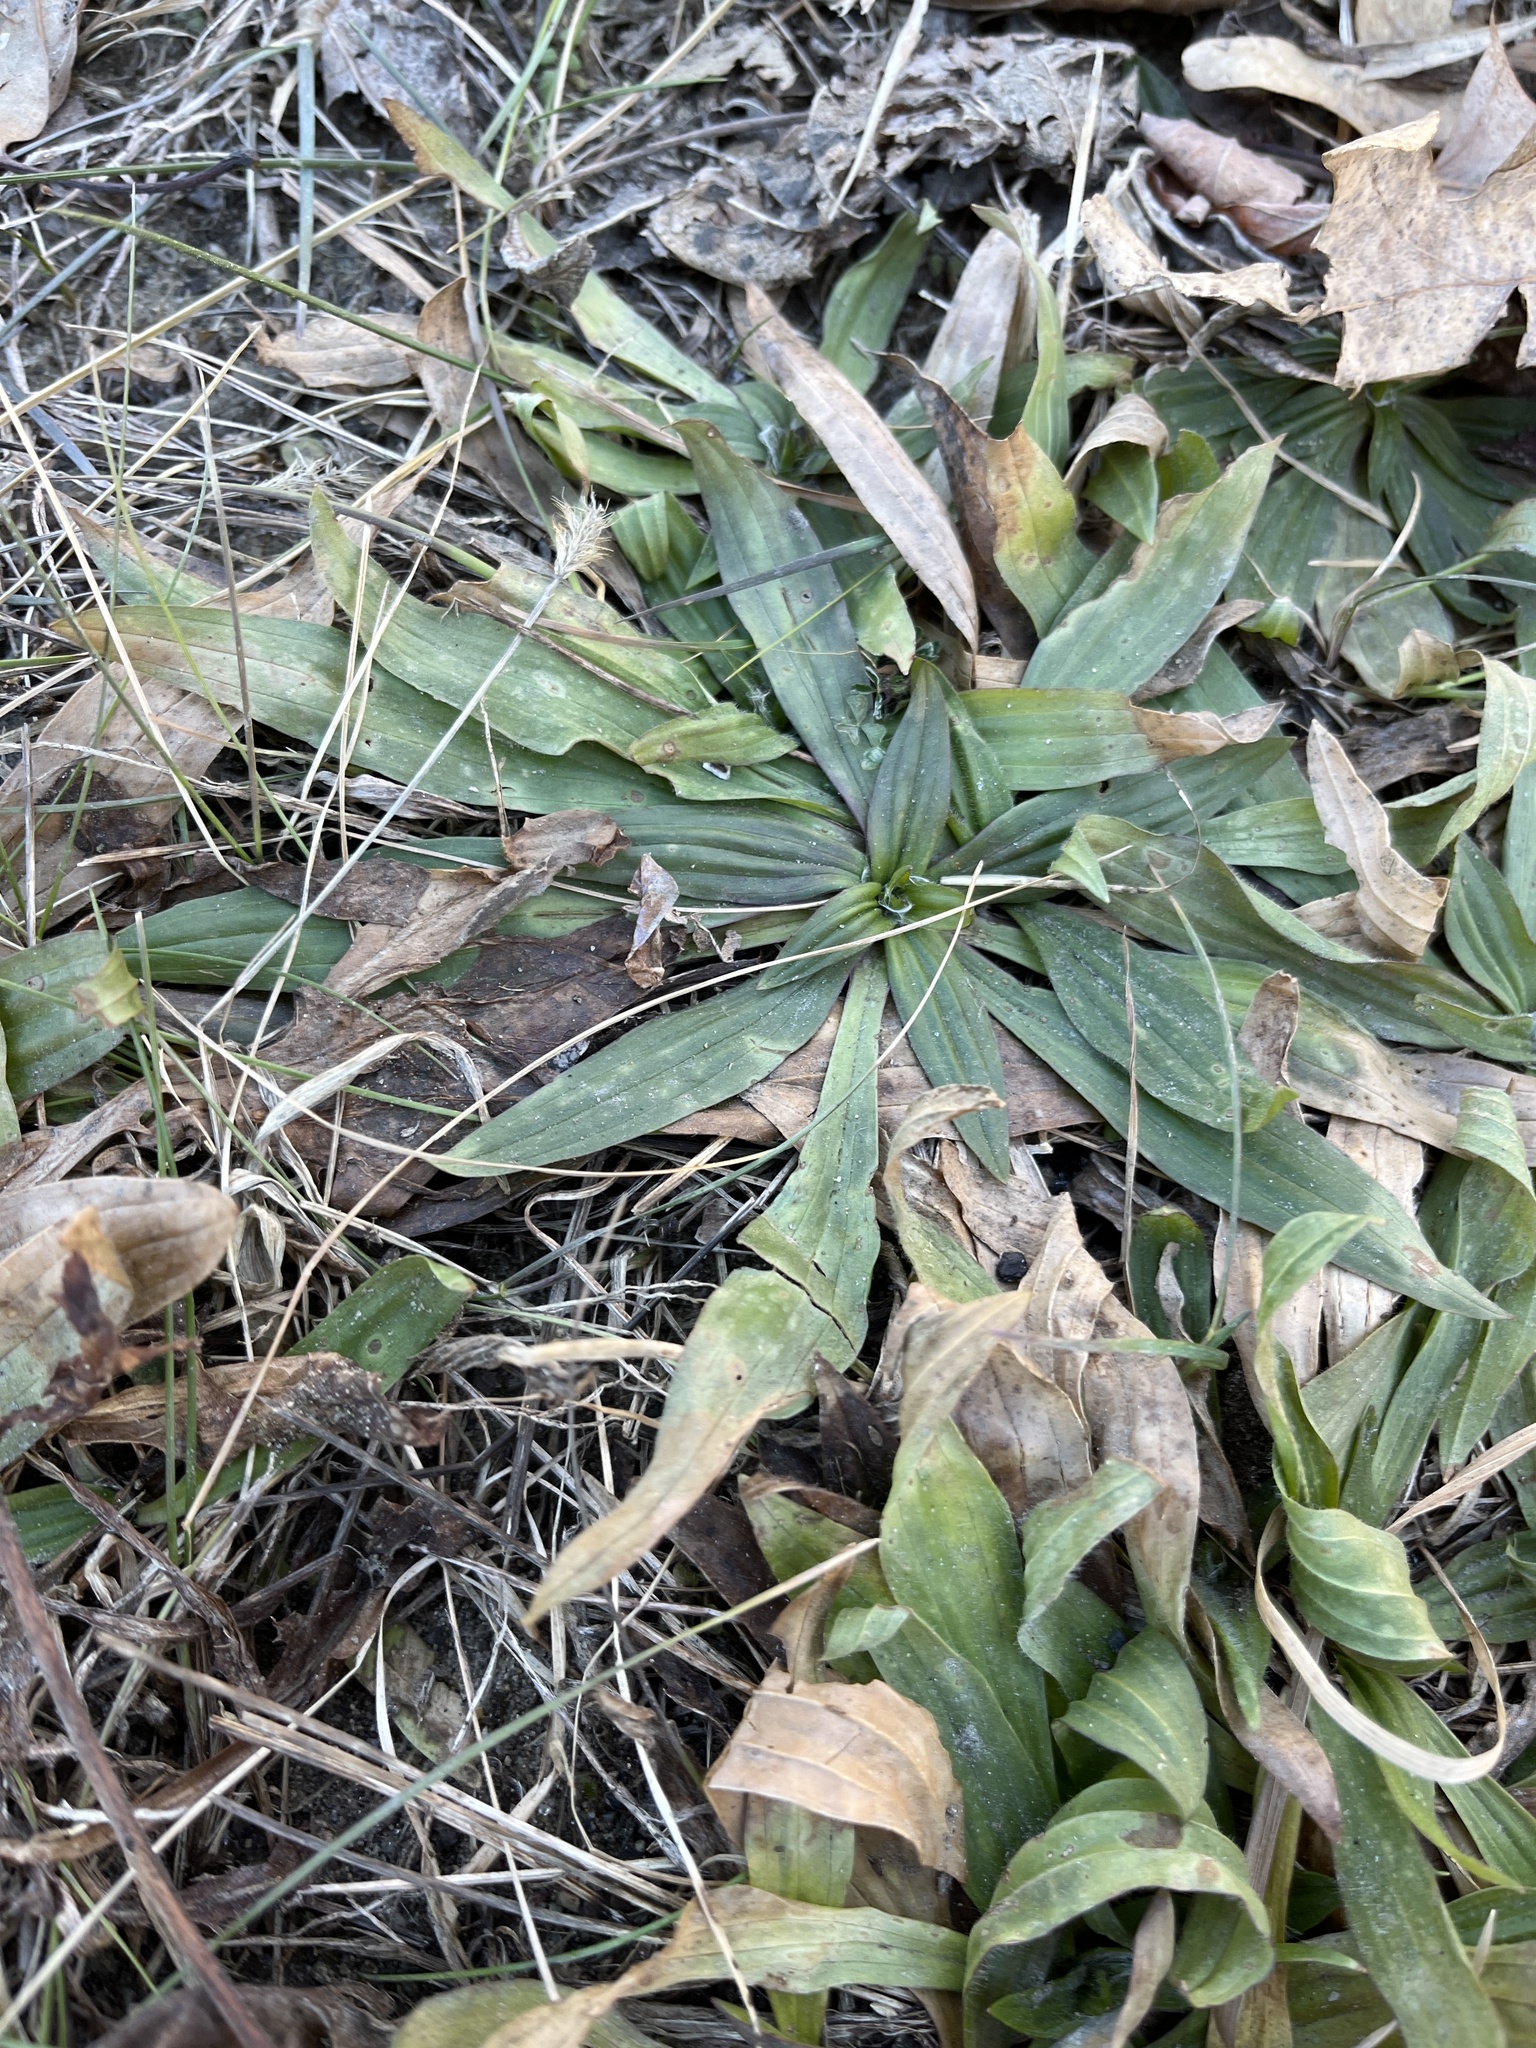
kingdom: Plantae
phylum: Tracheophyta
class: Magnoliopsida
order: Lamiales
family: Plantaginaceae
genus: Plantago
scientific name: Plantago lanceolata
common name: Ribwort plantain
